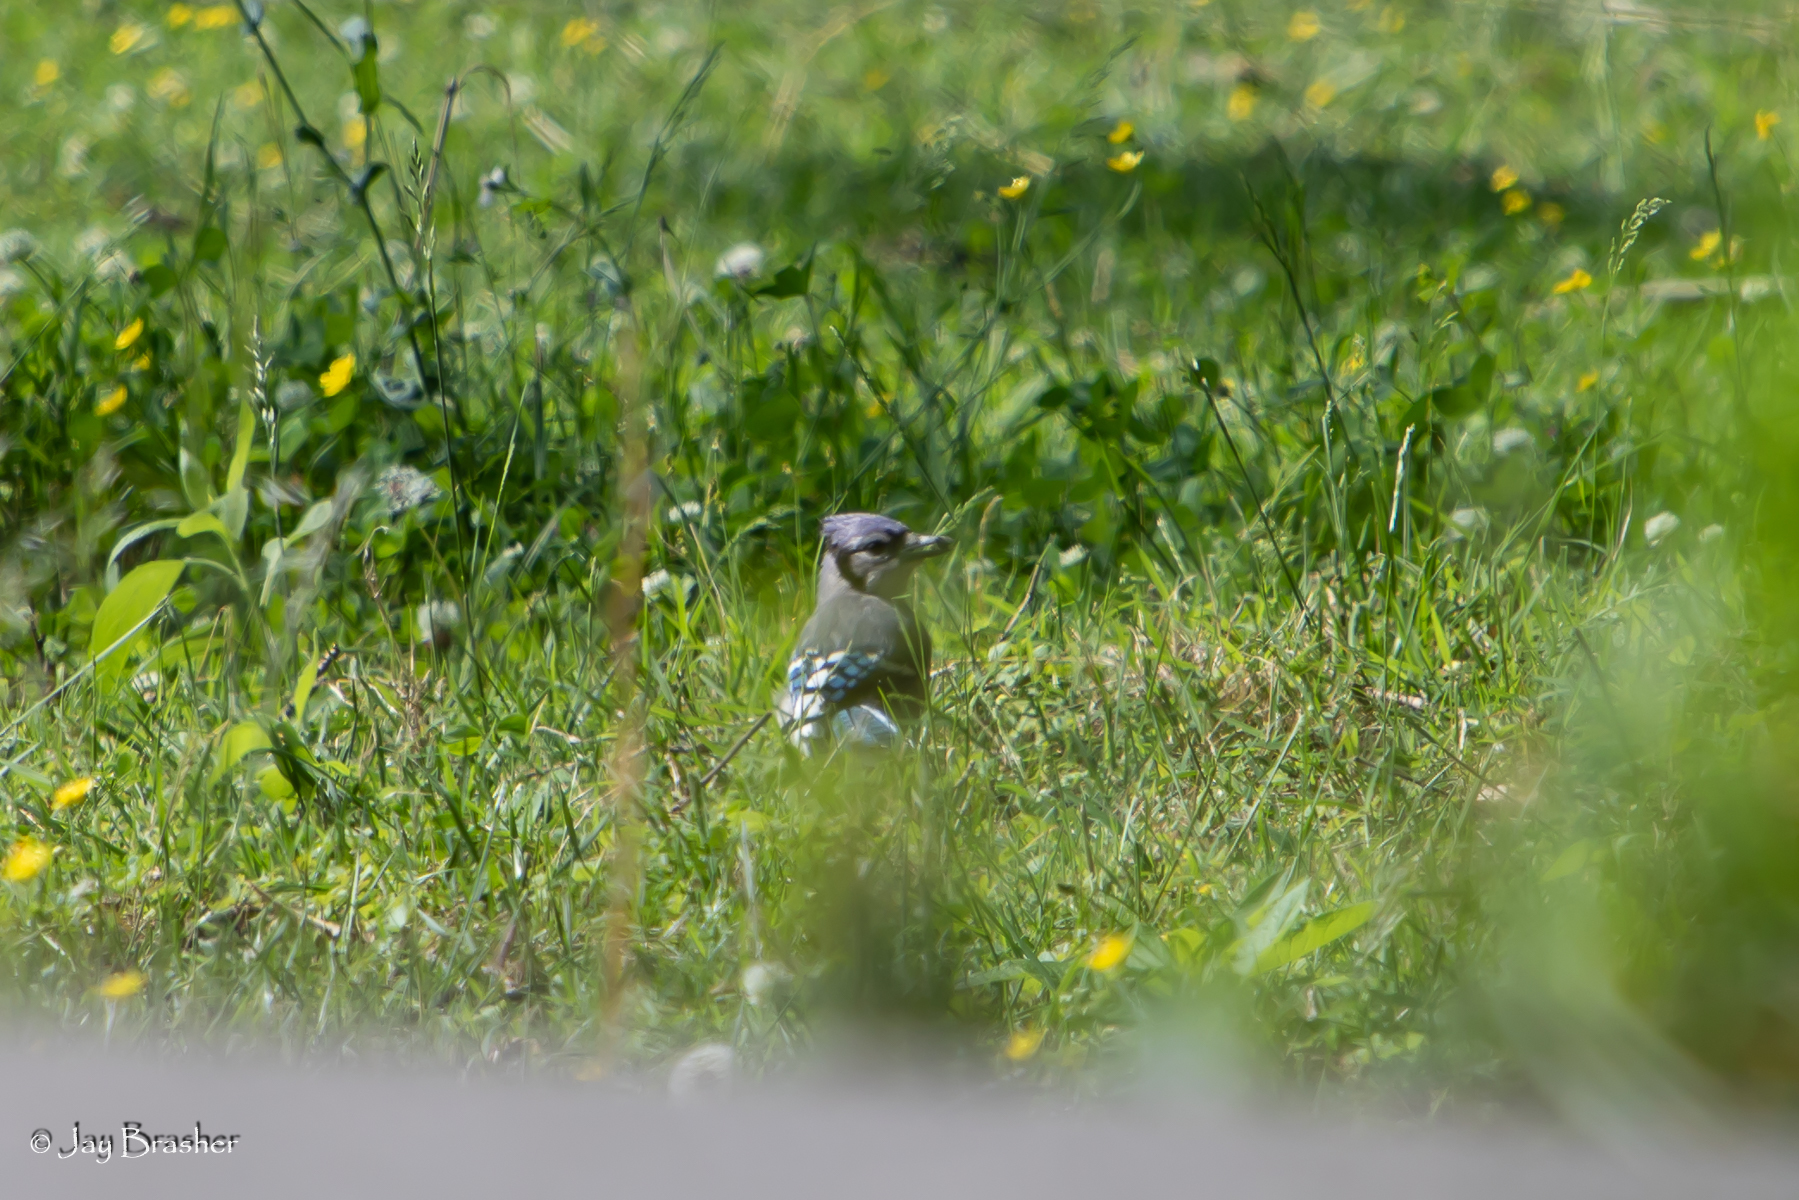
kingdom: Animalia
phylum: Chordata
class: Aves
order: Passeriformes
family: Corvidae
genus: Cyanocitta
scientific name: Cyanocitta cristata
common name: Blue jay
